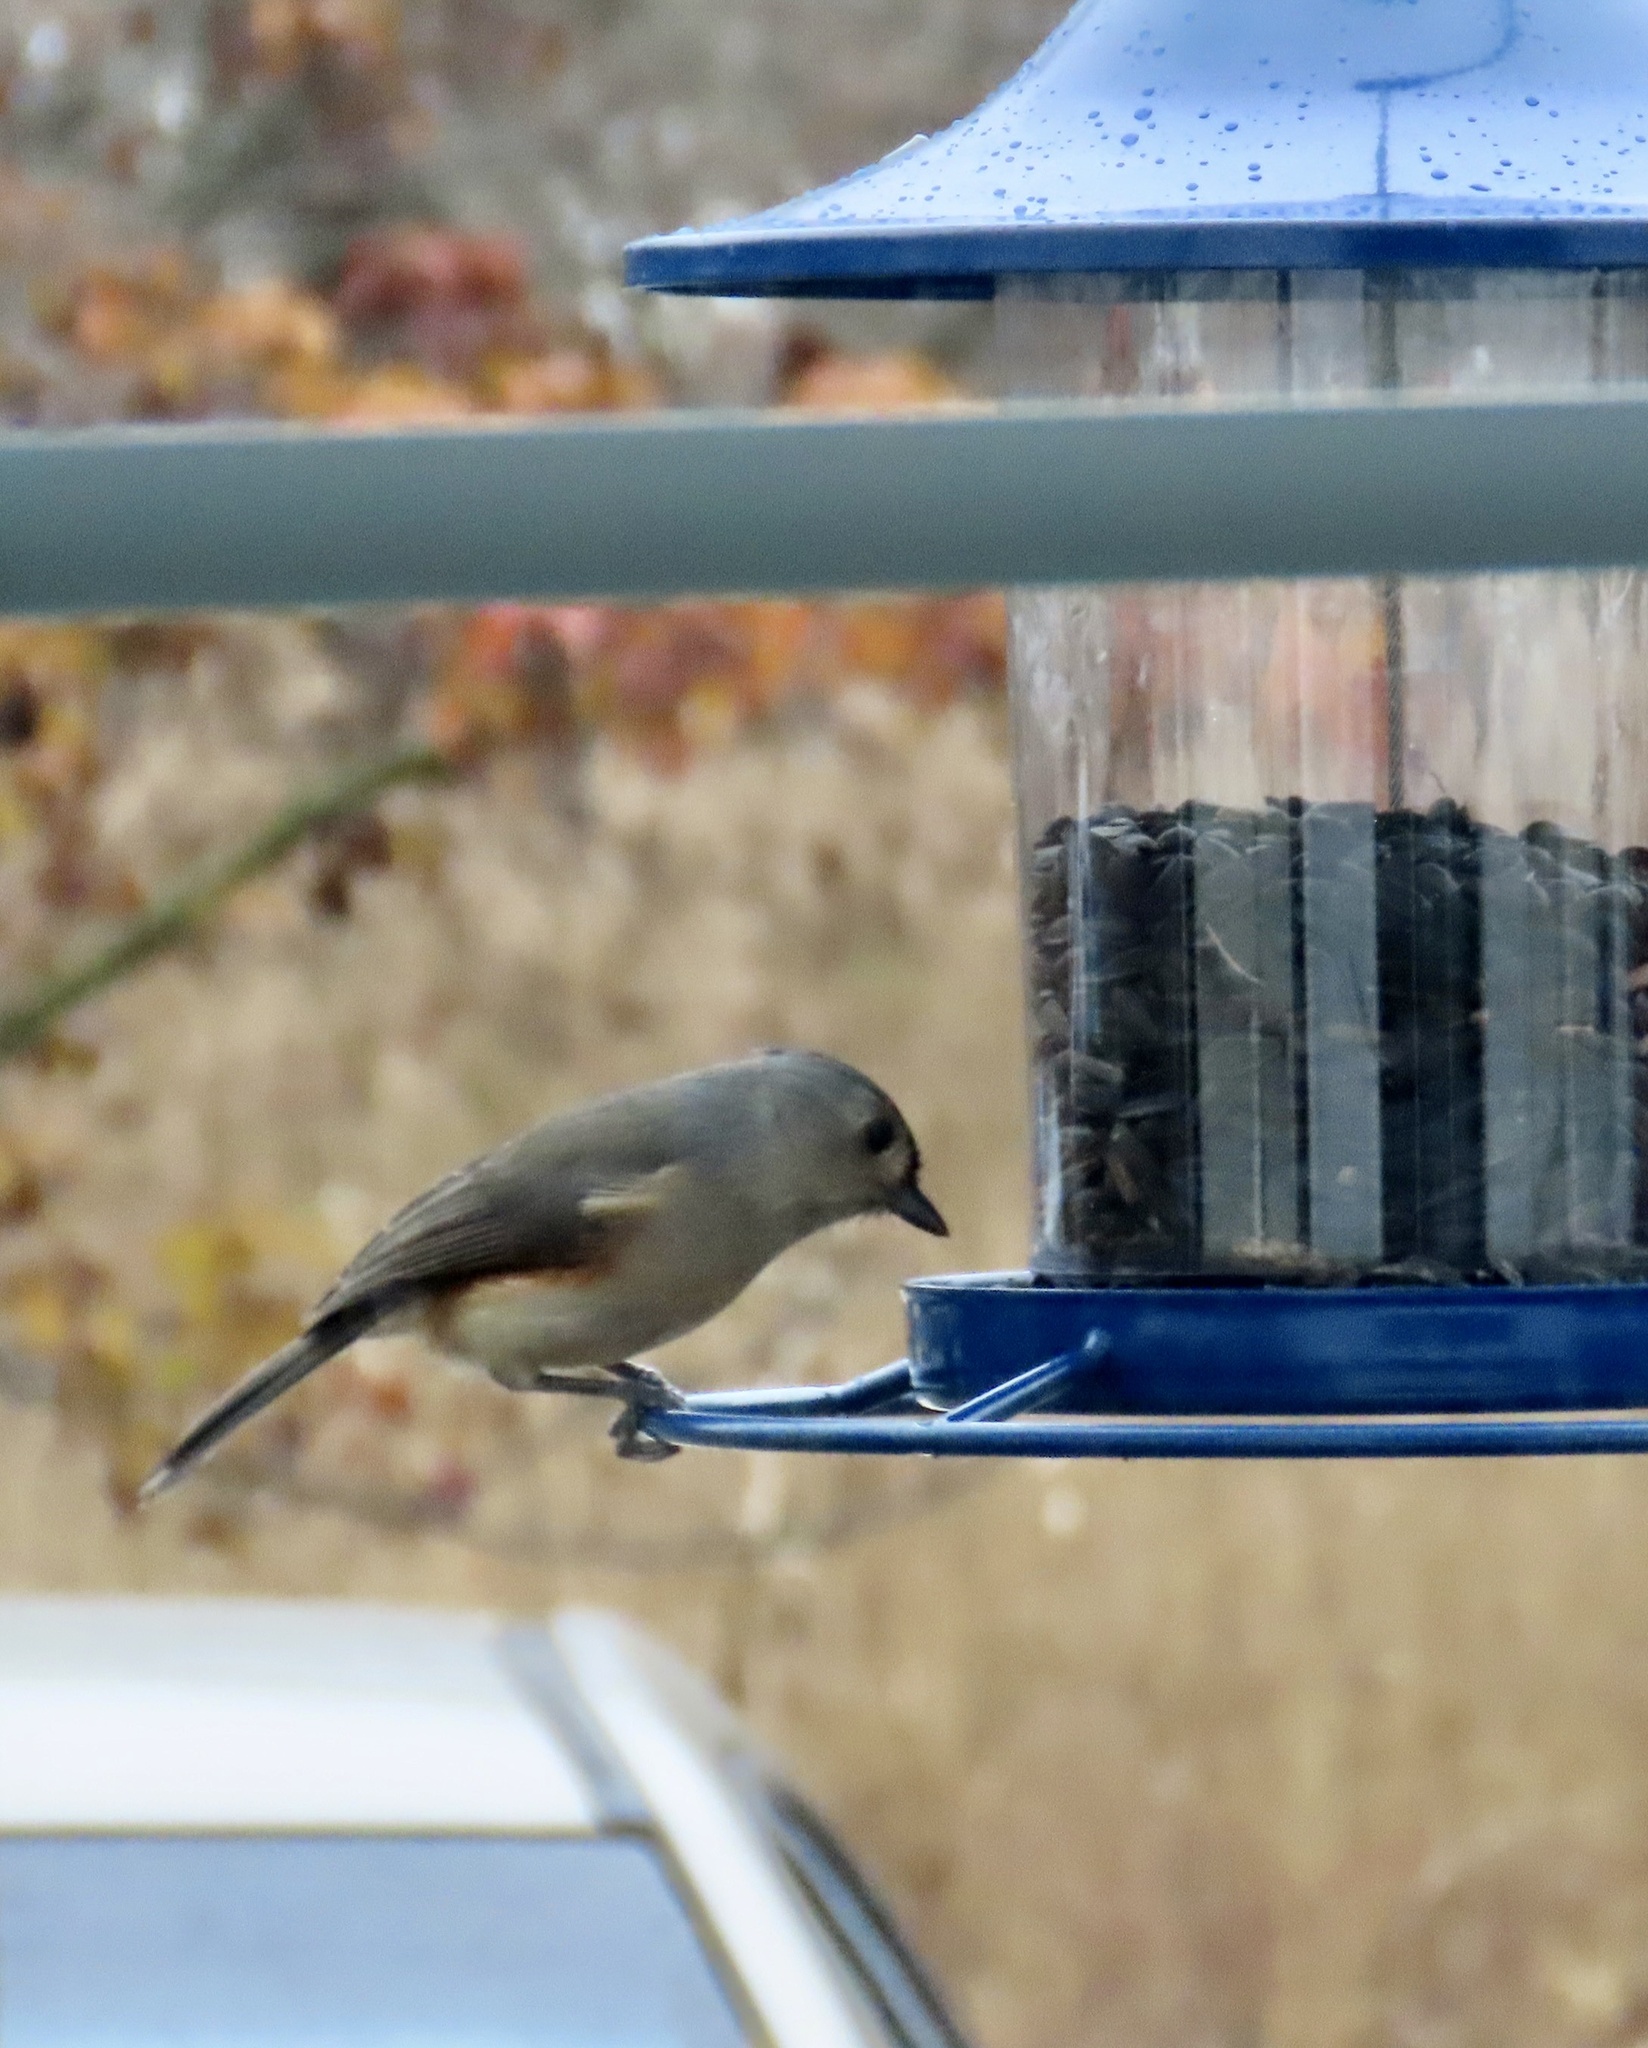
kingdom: Animalia
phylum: Chordata
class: Aves
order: Passeriformes
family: Paridae
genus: Baeolophus
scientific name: Baeolophus bicolor
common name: Tufted titmouse
